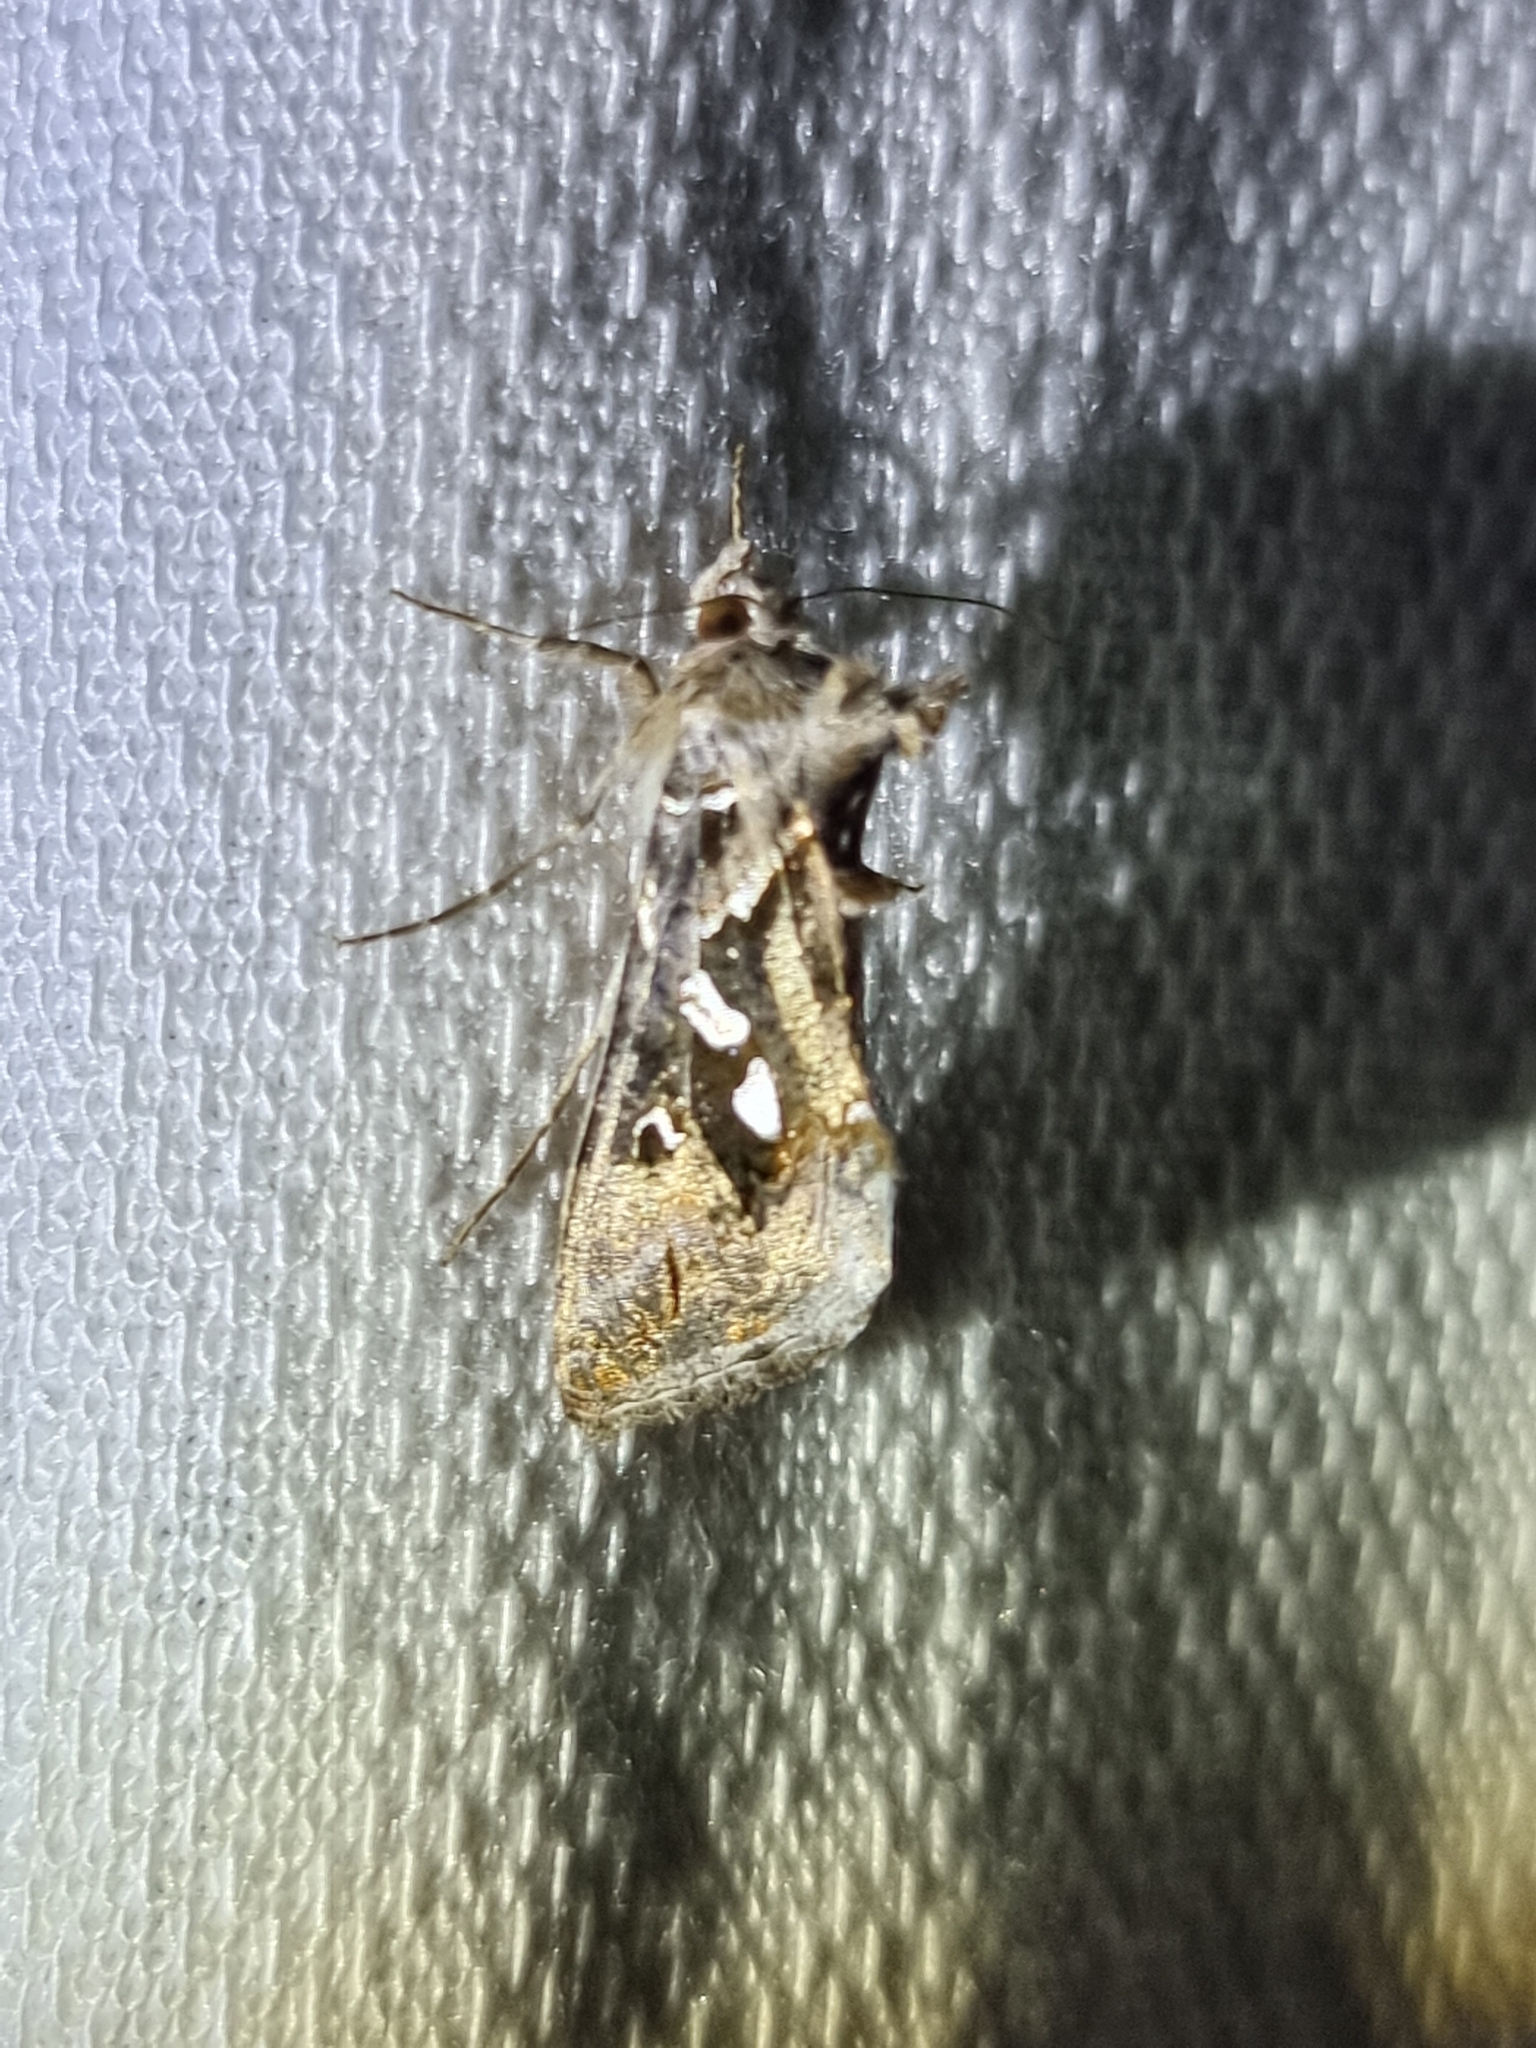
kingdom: Animalia
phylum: Arthropoda
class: Insecta
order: Lepidoptera
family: Noctuidae
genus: Chrysodeixis
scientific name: Chrysodeixis argentifera
